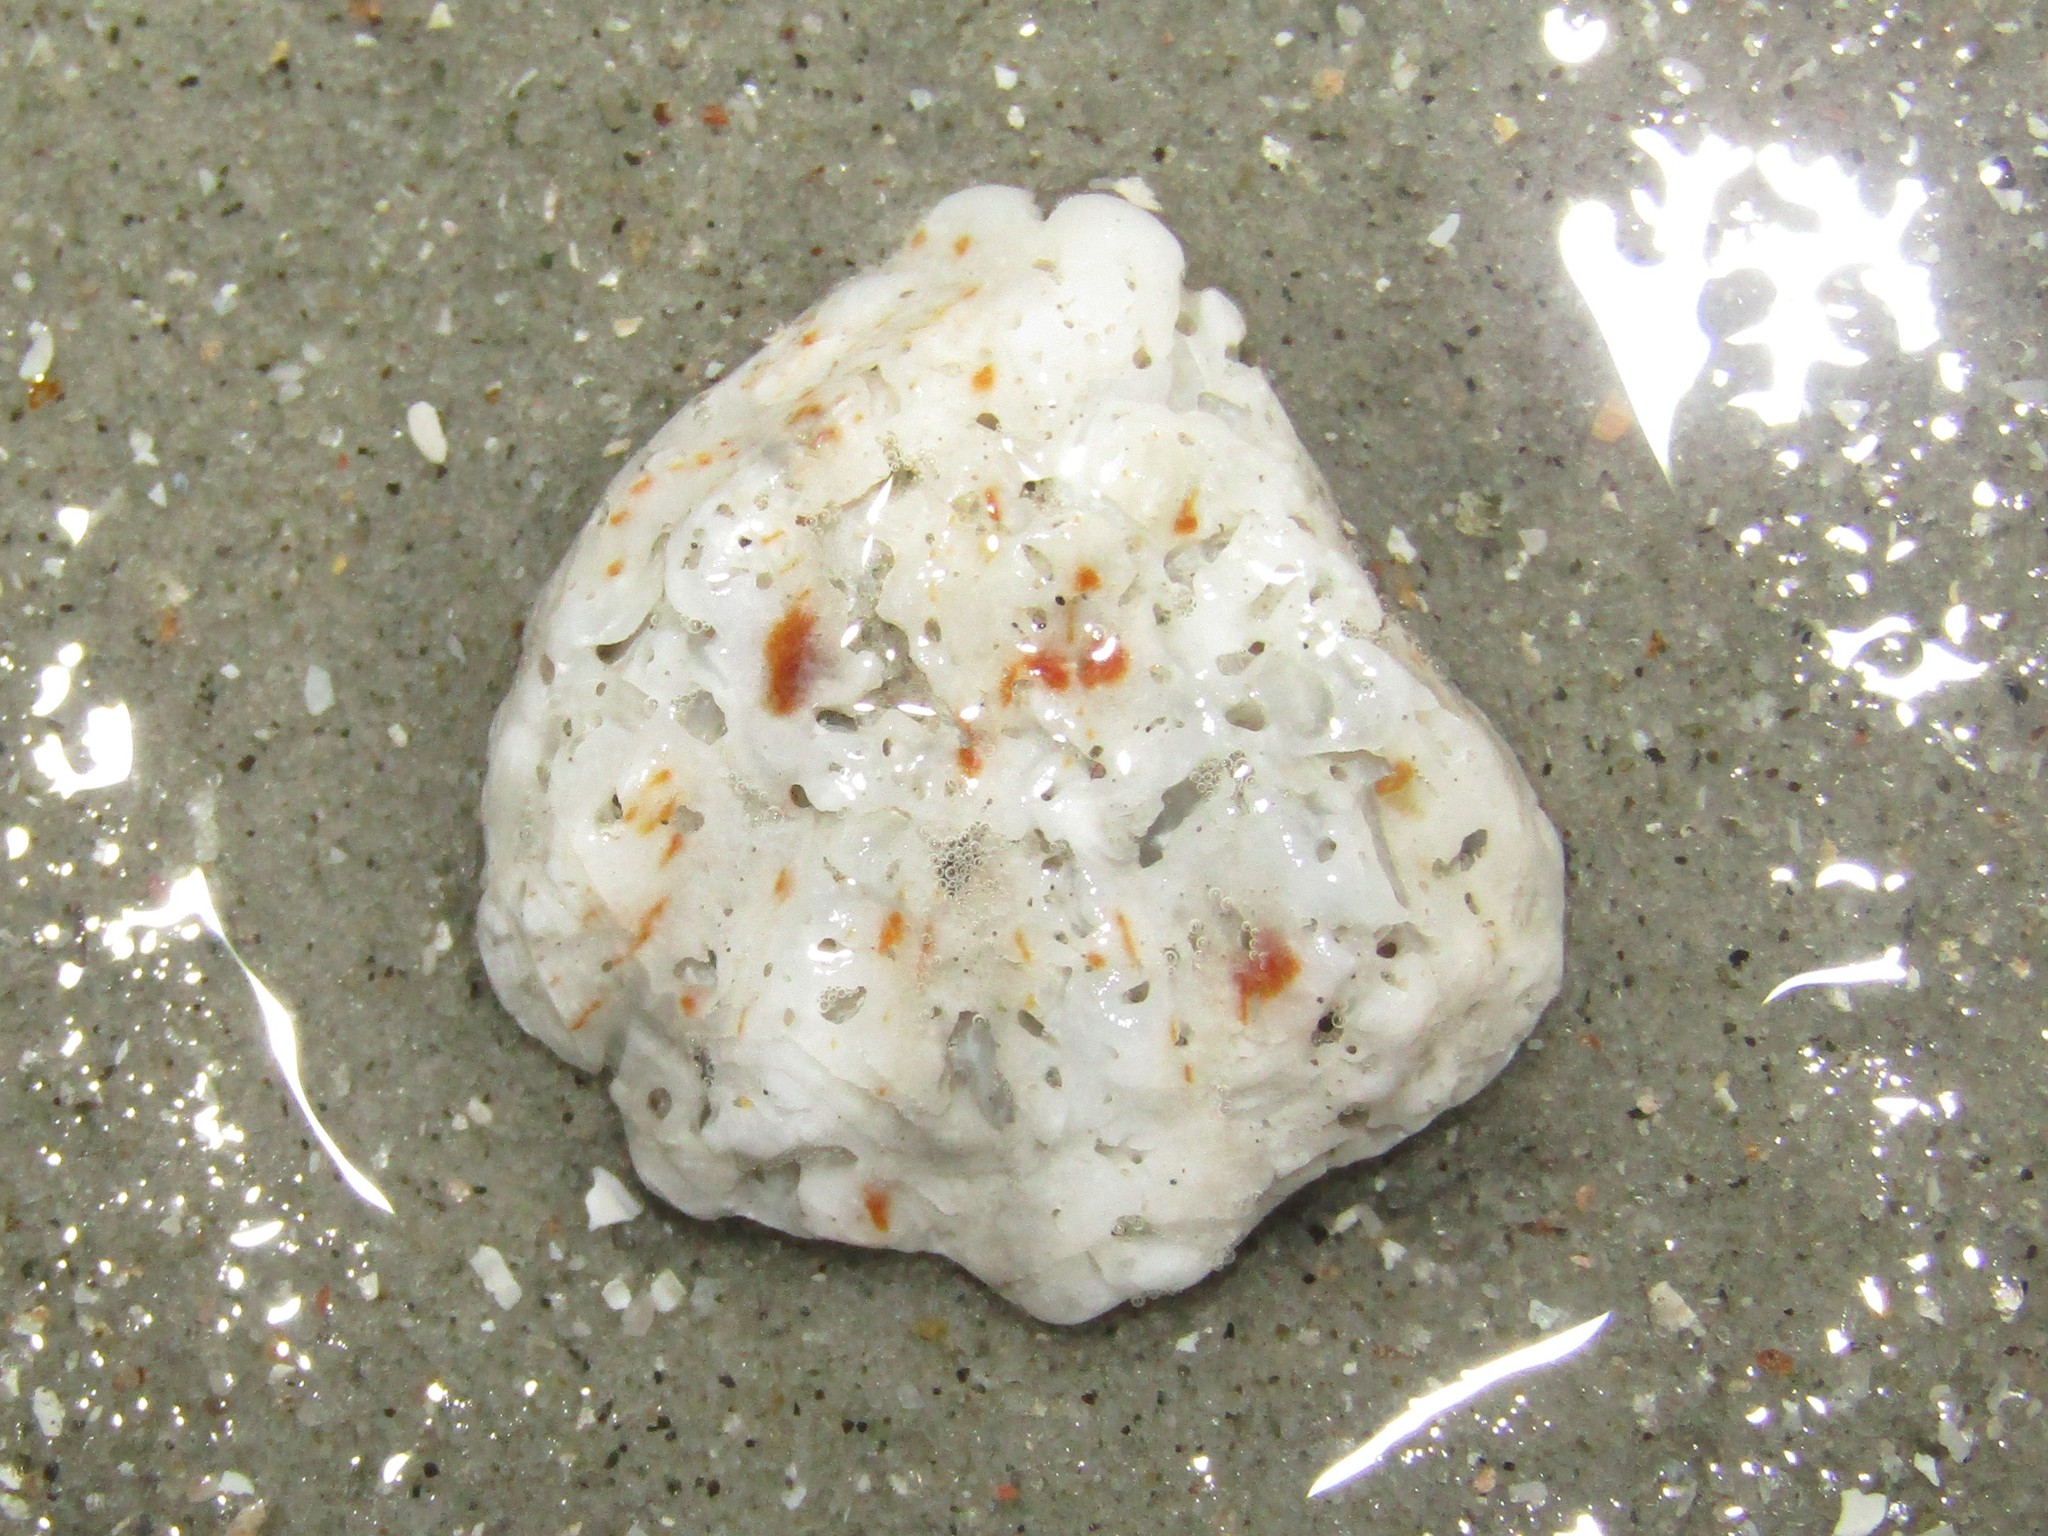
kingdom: Animalia
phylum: Mollusca
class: Bivalvia
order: Pectinida
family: Plicatulidae
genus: Plicatula
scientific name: Plicatula gibbosa
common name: Atlantic kitten's paw
